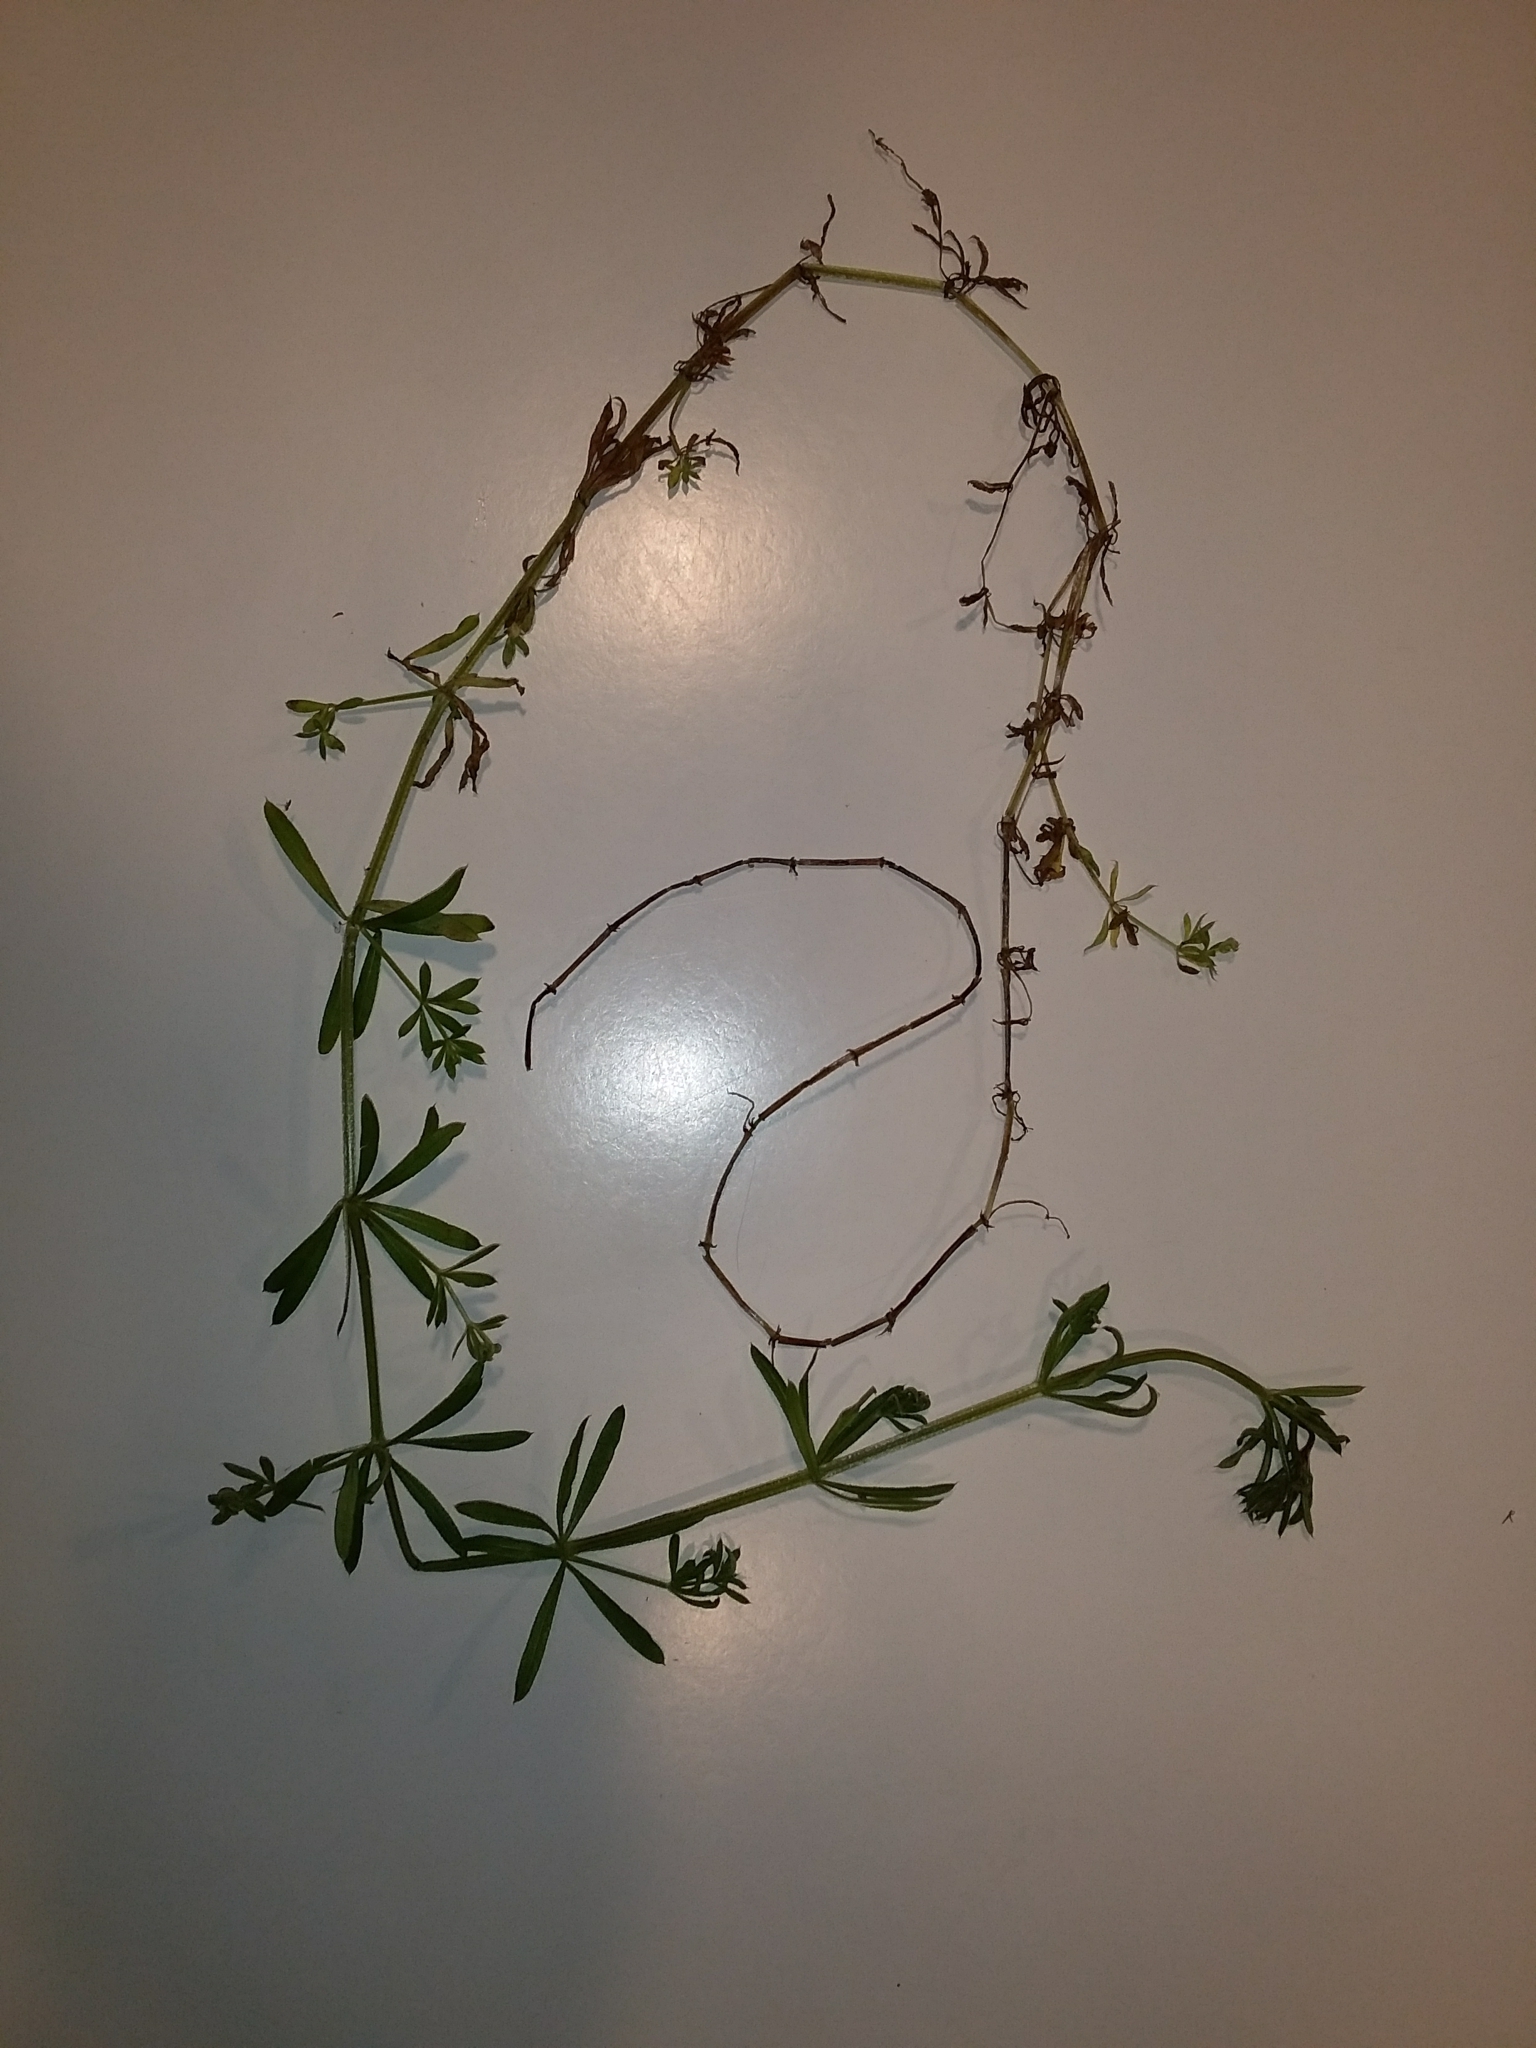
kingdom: Plantae
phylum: Tracheophyta
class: Magnoliopsida
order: Gentianales
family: Rubiaceae
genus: Galium
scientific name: Galium aparine
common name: Cleavers
